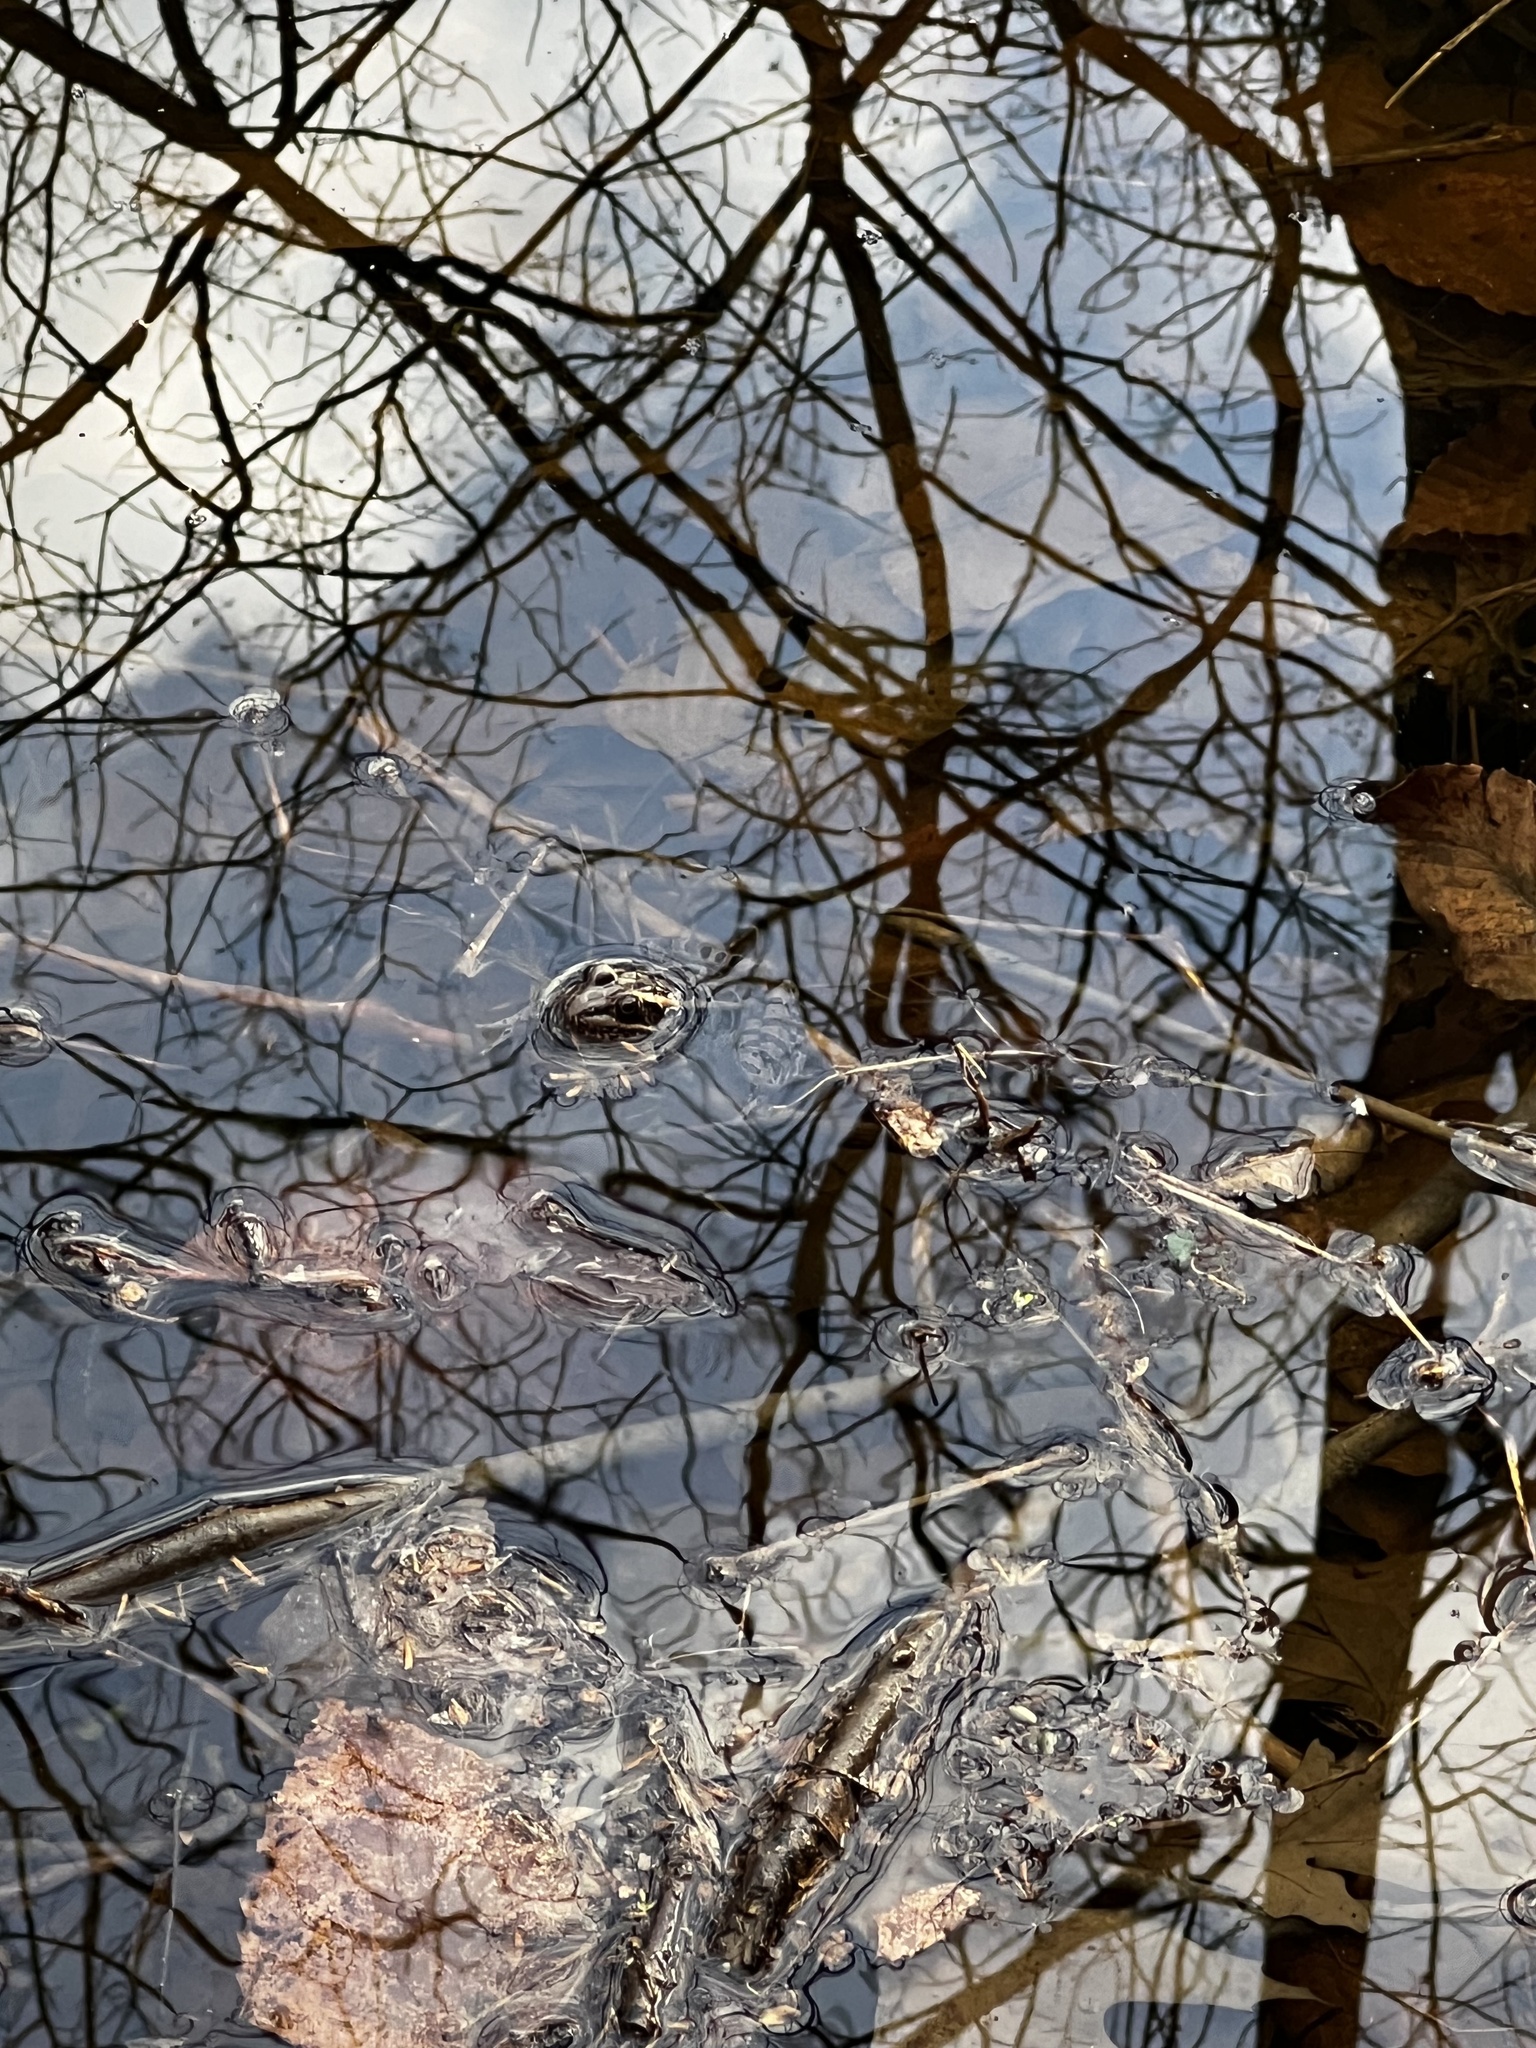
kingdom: Animalia
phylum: Chordata
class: Amphibia
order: Anura
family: Ranidae
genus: Lithobates
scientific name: Lithobates palustris
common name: Pickerel frog
